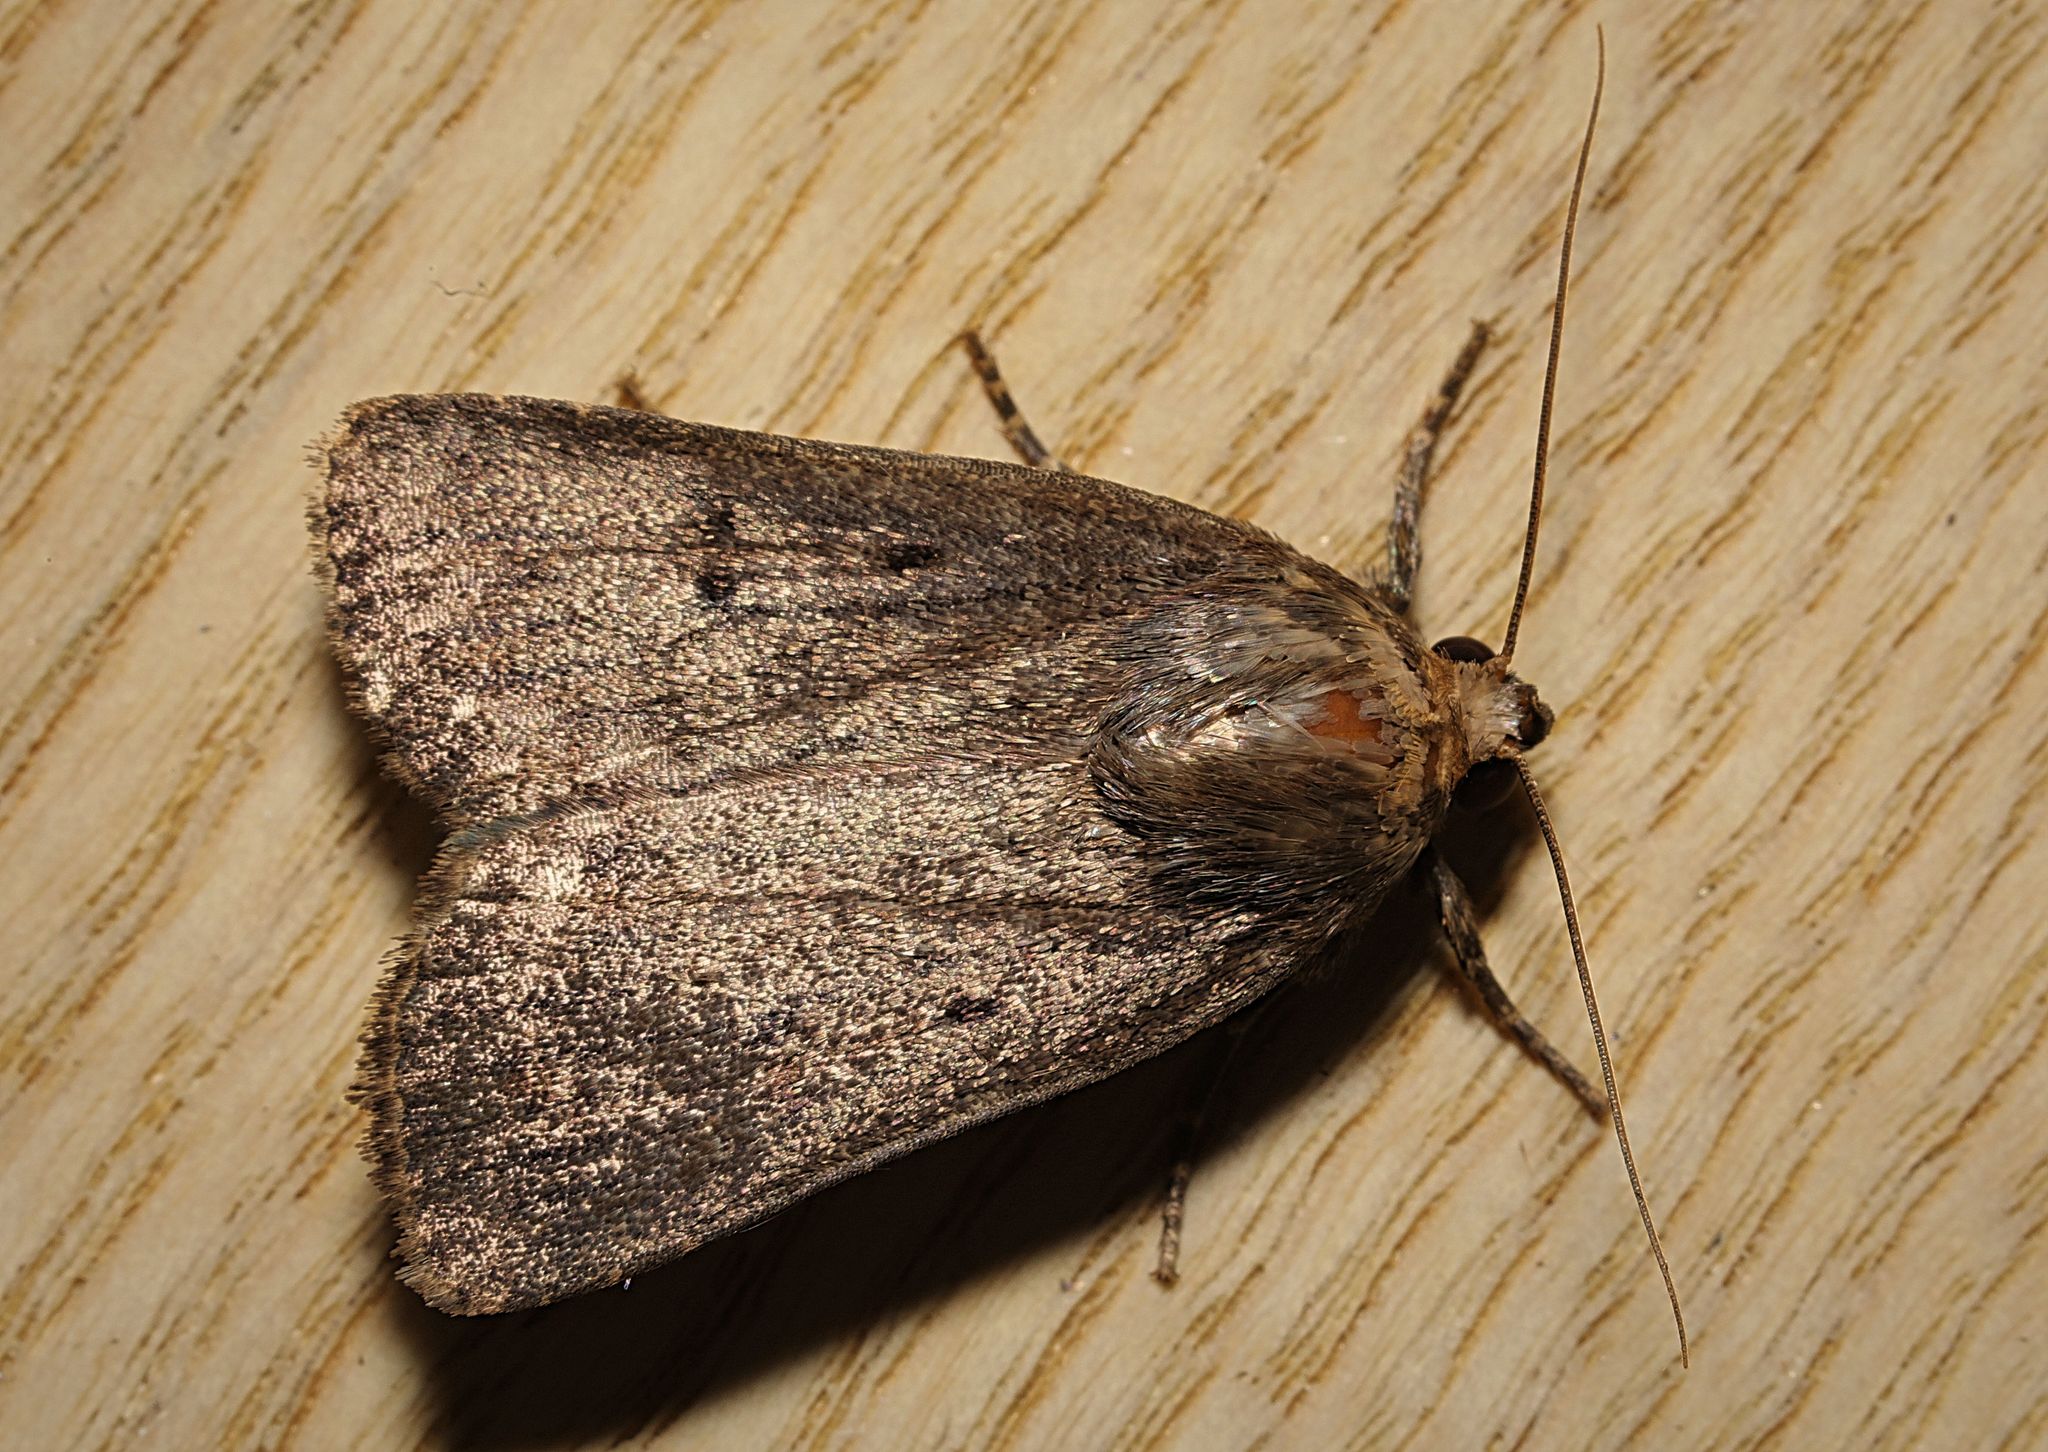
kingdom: Animalia
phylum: Arthropoda
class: Insecta
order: Lepidoptera
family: Noctuidae
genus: Amphipyra
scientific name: Amphipyra tragopoginis
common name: Mouse moth
